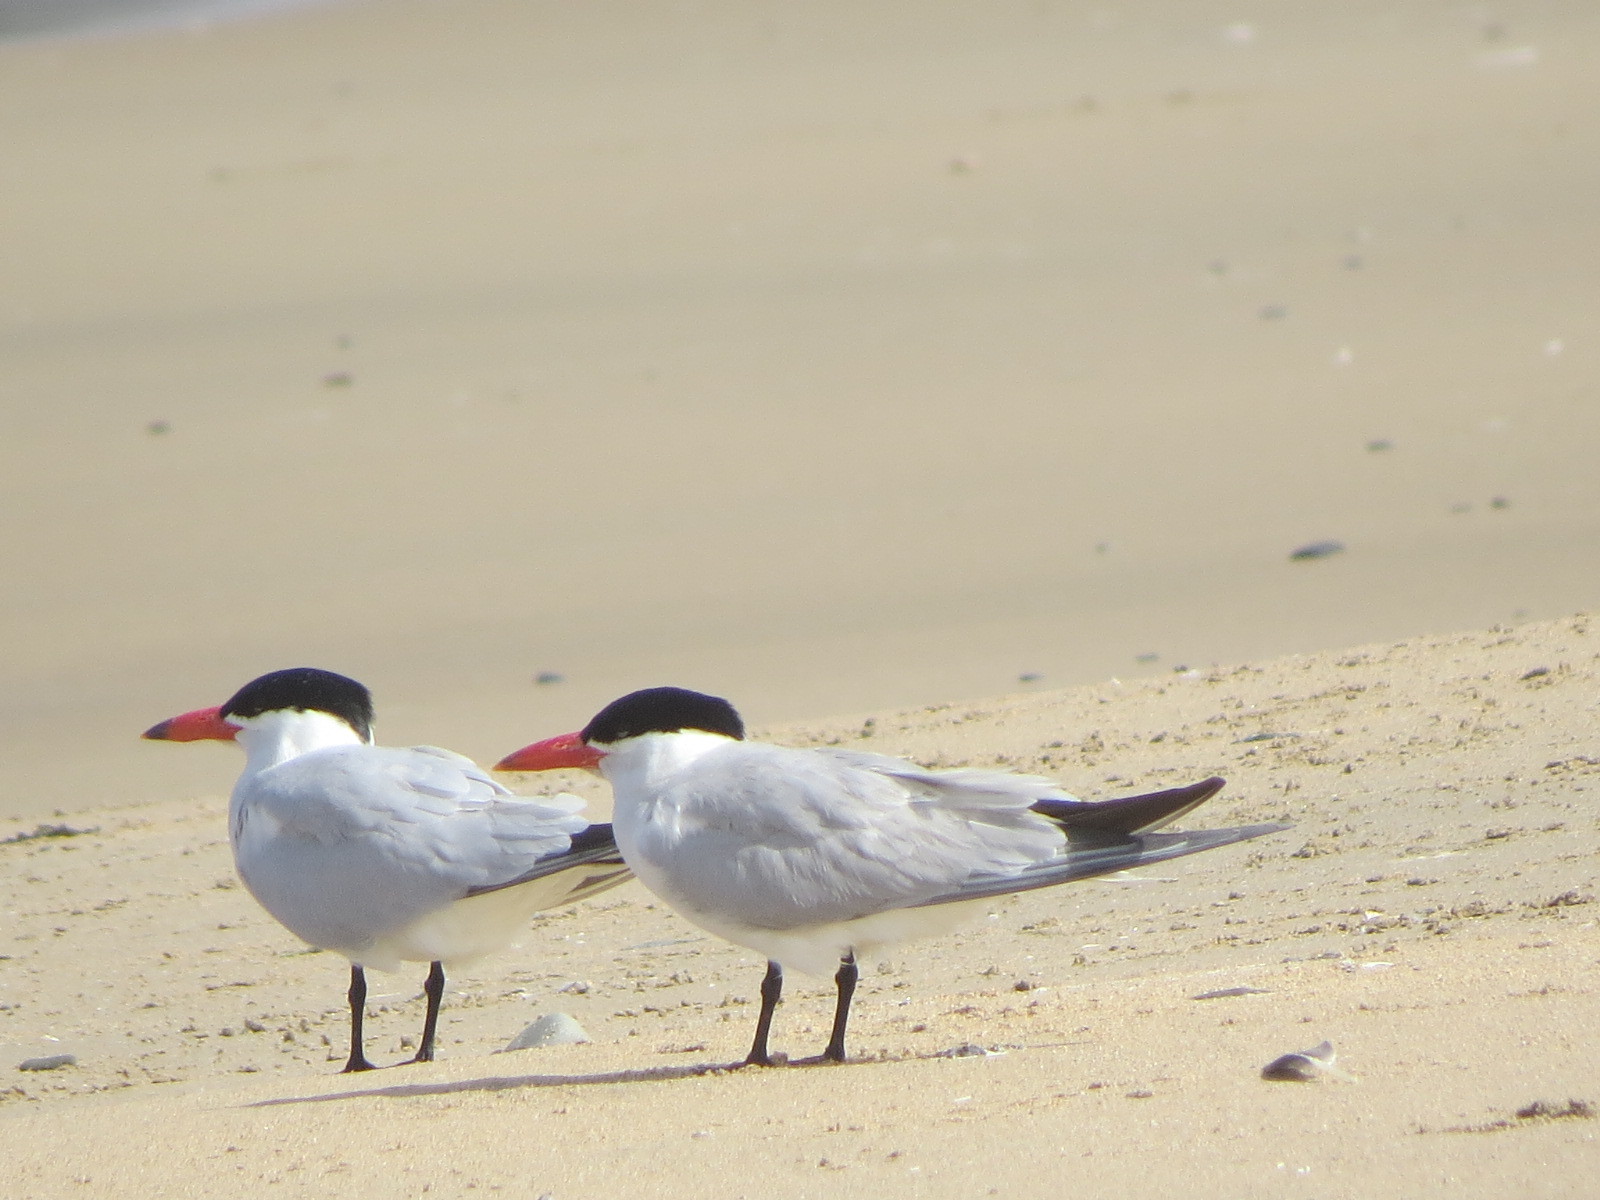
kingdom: Animalia
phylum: Chordata
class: Aves
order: Charadriiformes
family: Laridae
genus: Hydroprogne
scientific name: Hydroprogne caspia
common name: Caspian tern
